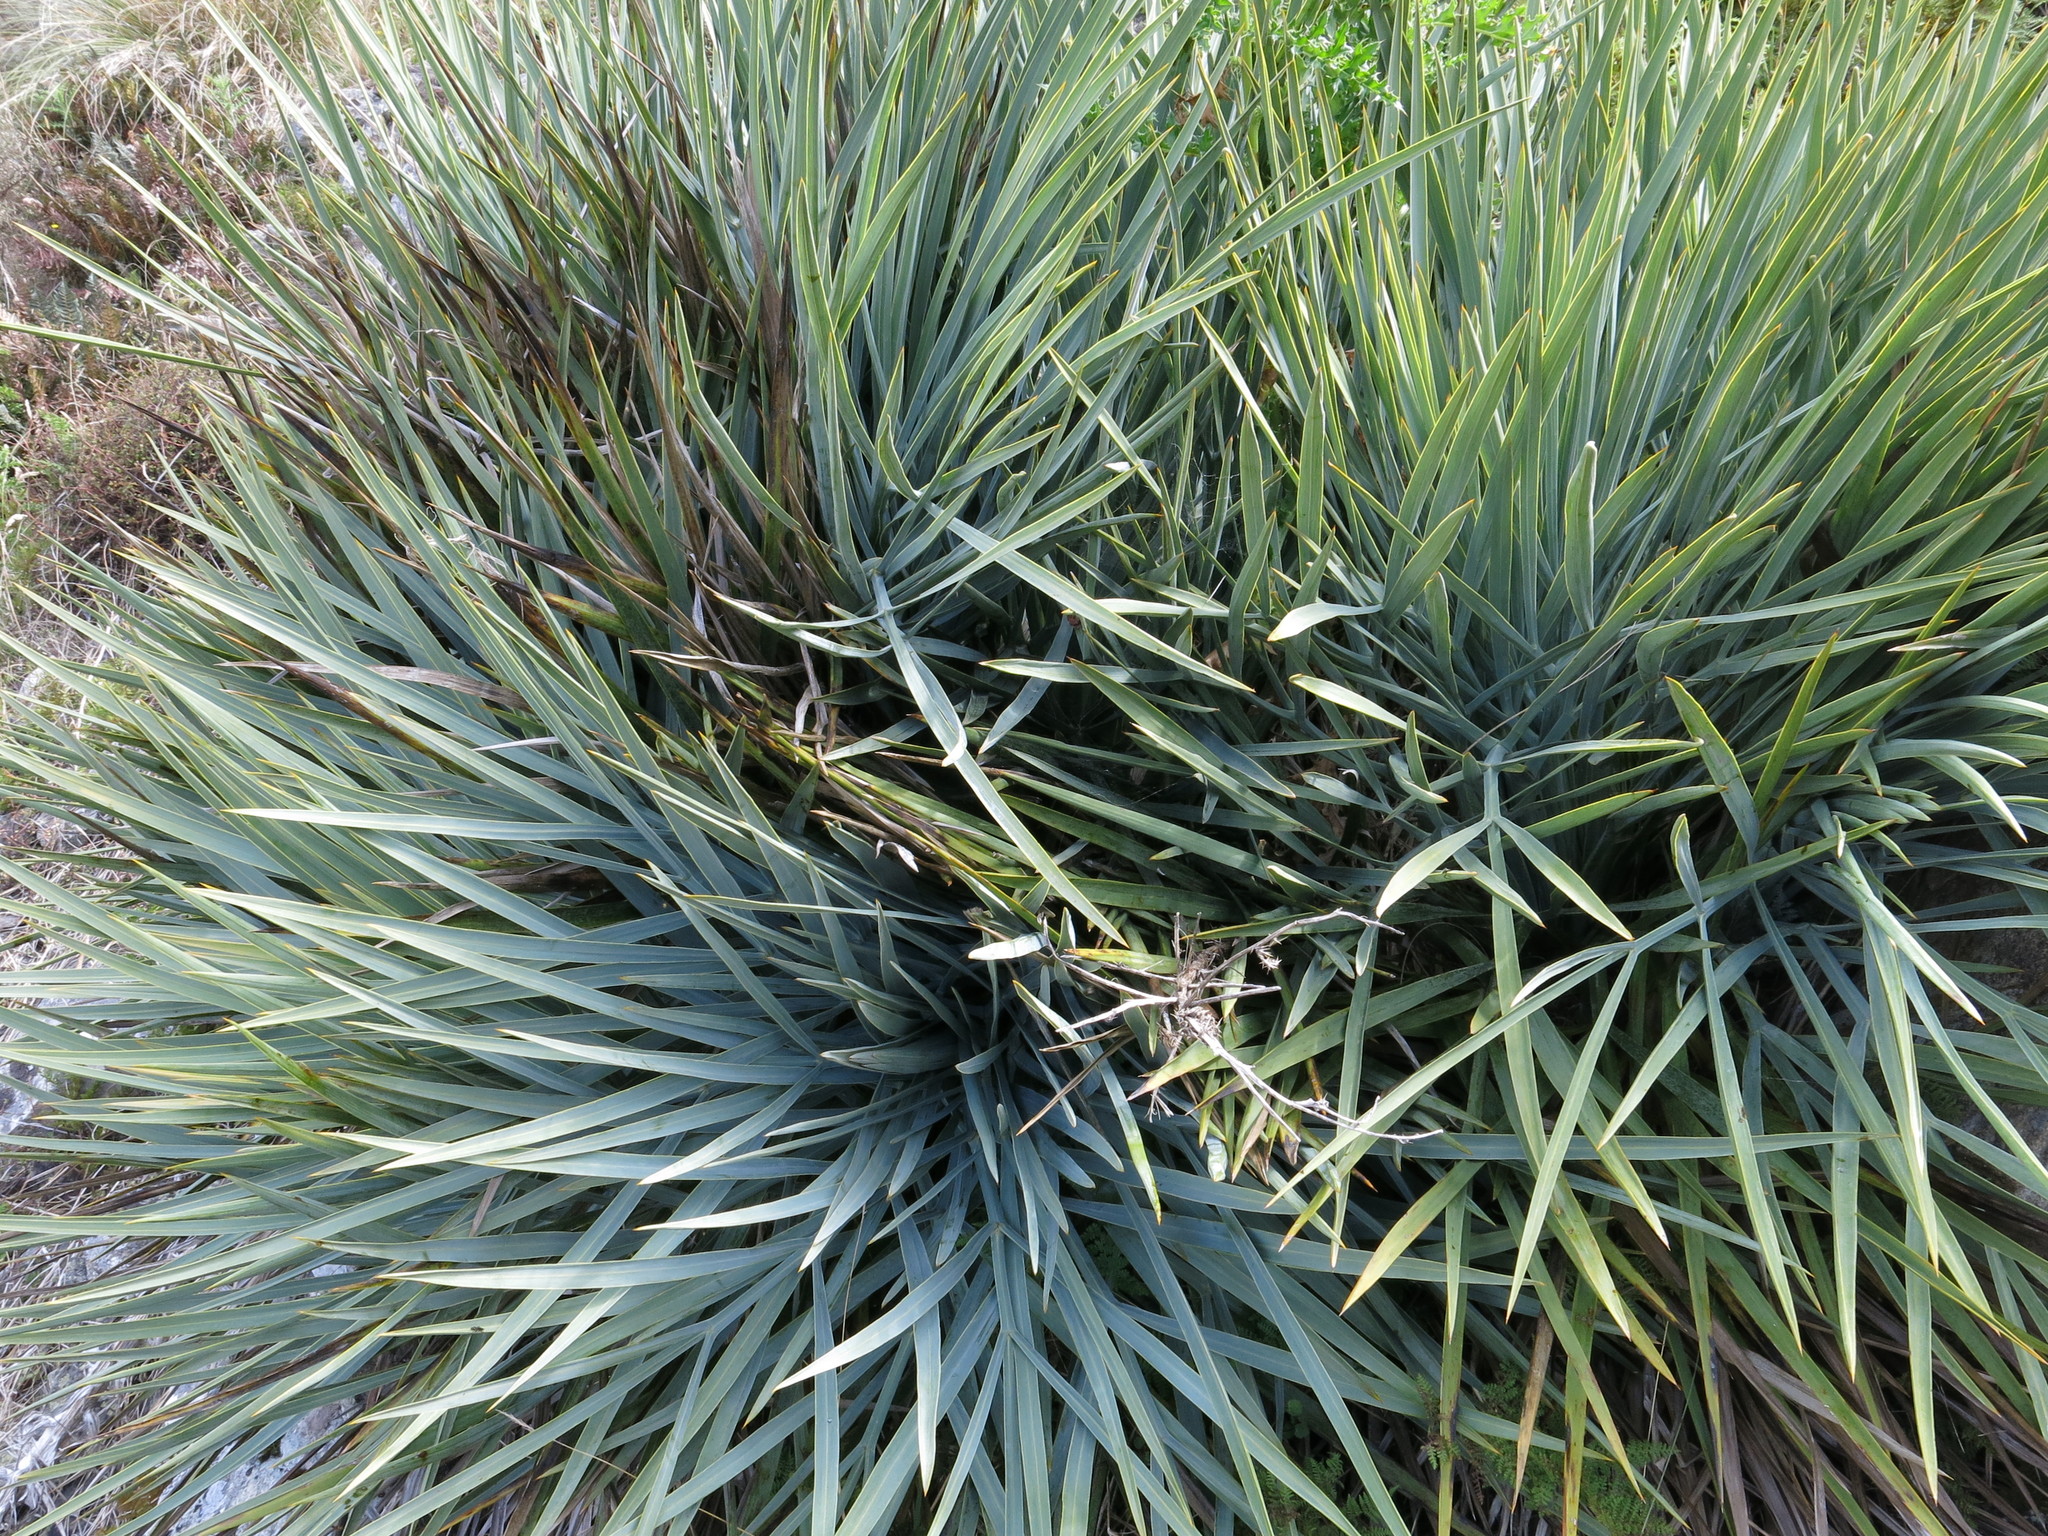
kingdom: Plantae
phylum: Tracheophyta
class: Magnoliopsida
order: Apiales
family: Apiaceae
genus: Aciphylla
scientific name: Aciphylla scott-thomsonii
